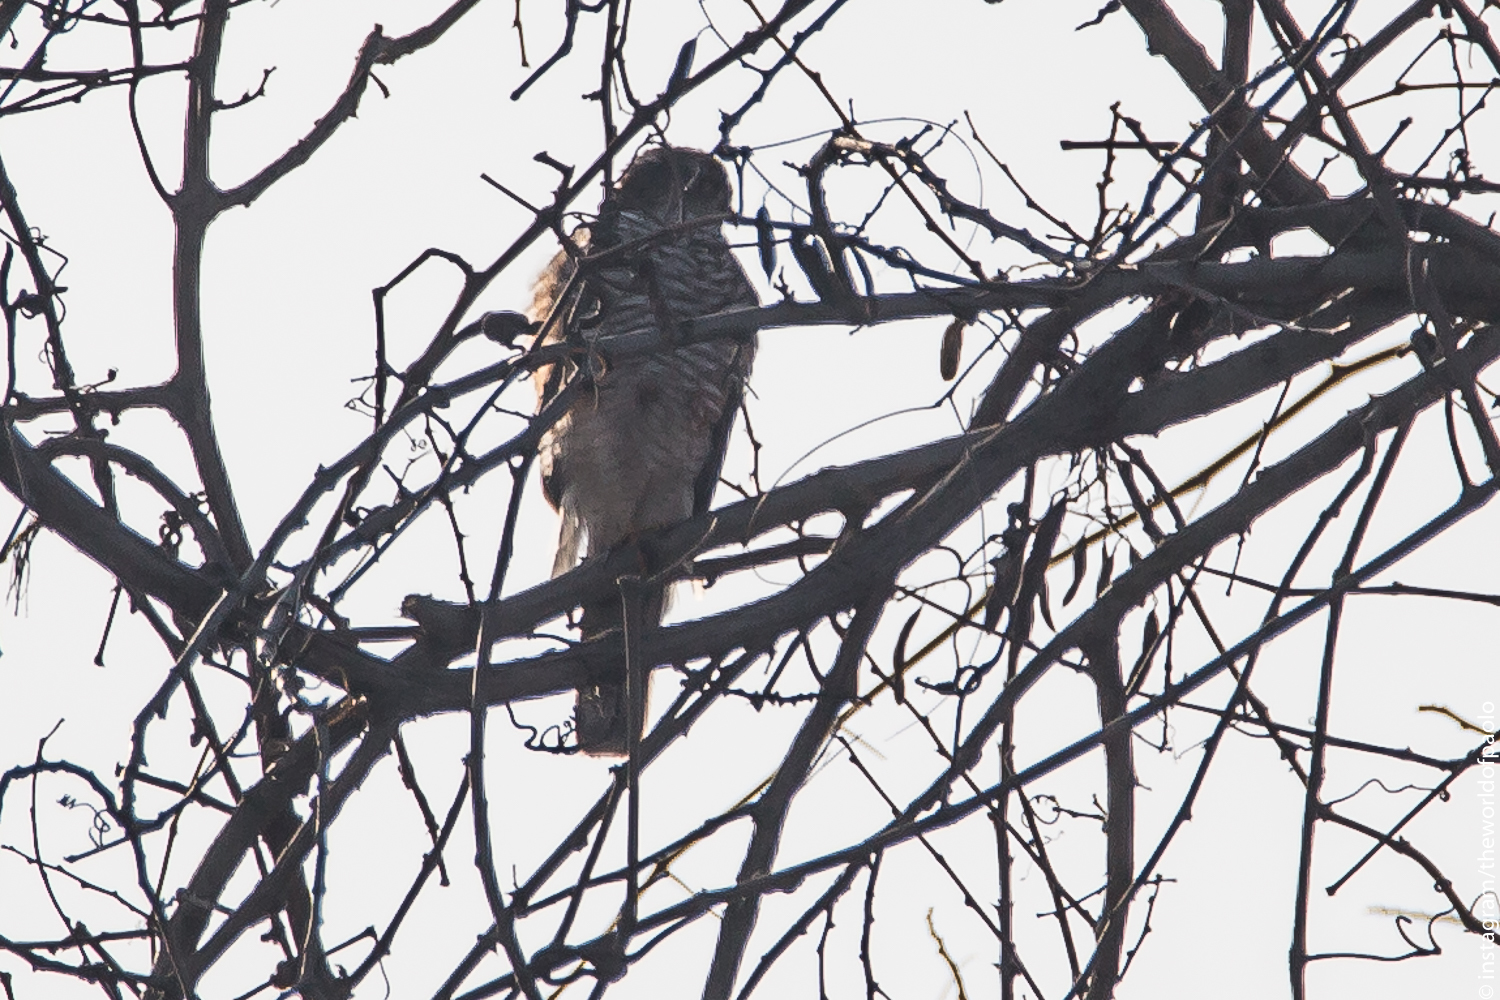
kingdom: Animalia
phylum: Chordata
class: Aves
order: Accipitriformes
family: Accipitridae
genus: Accipiter
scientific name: Accipiter nisus
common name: Eurasian sparrowhawk
